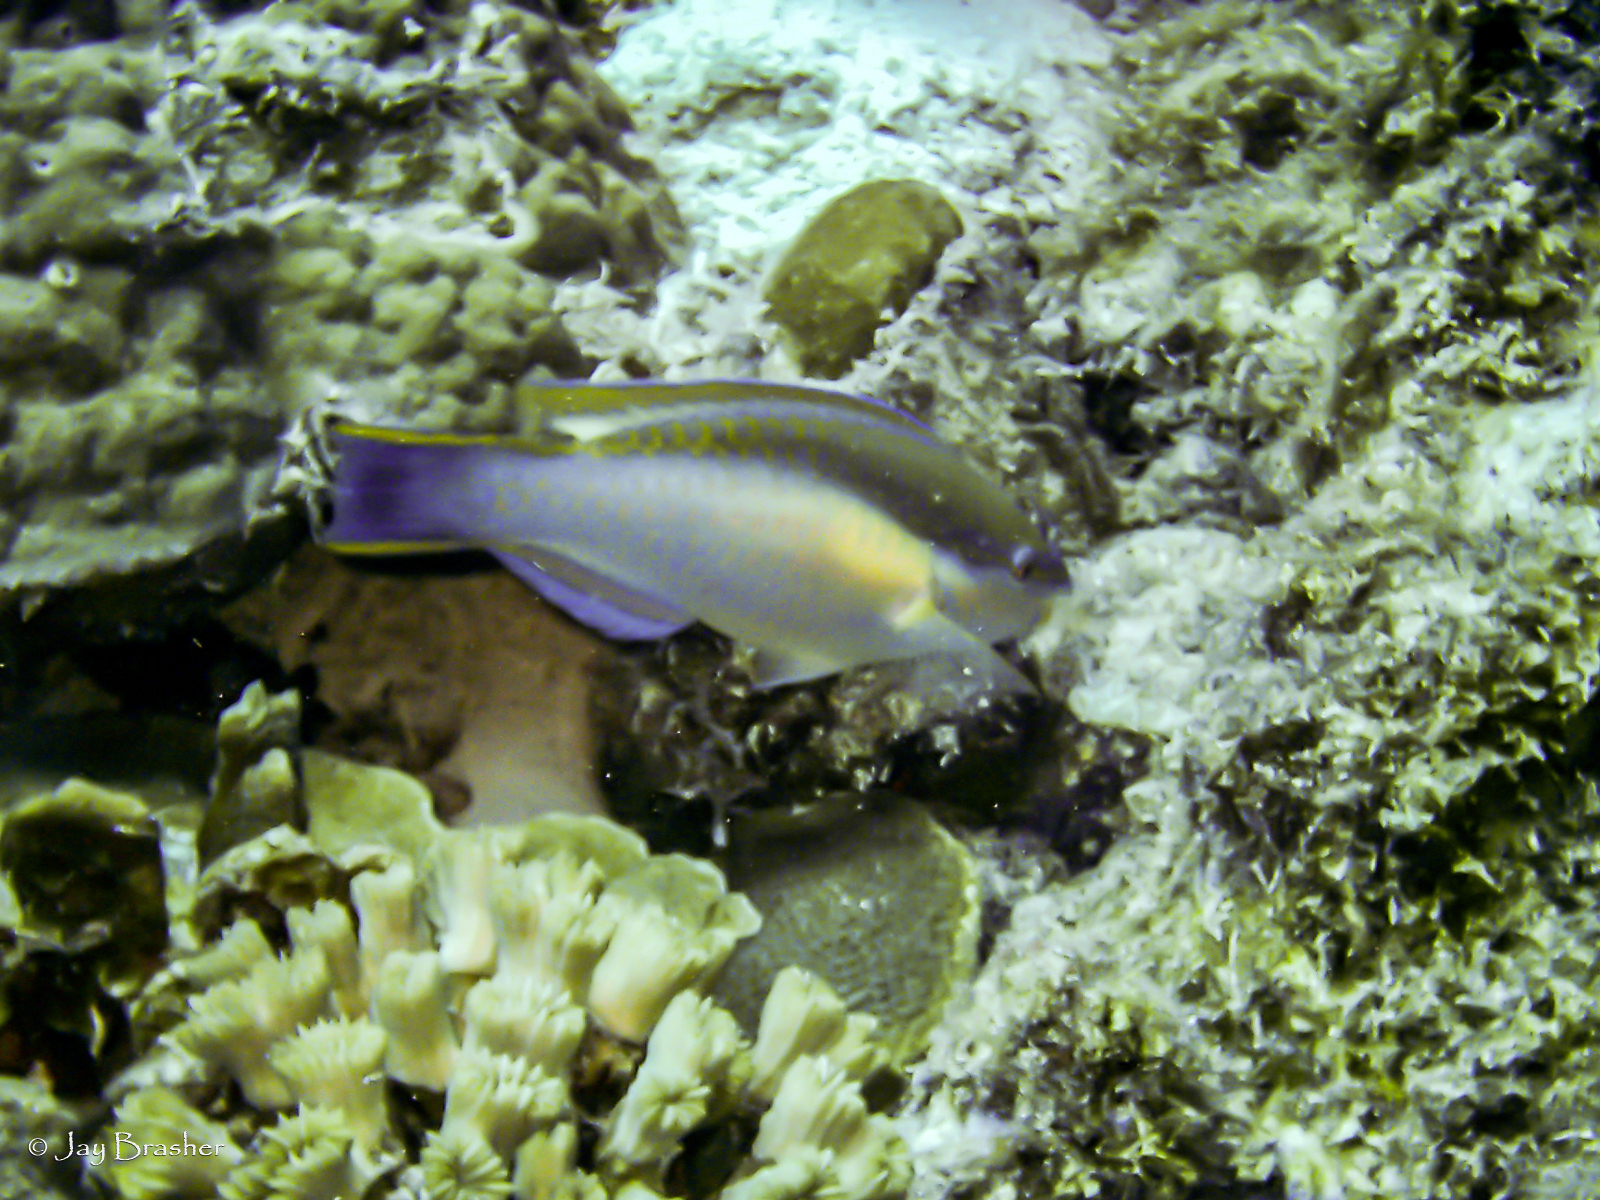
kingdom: Animalia
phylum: Chordata
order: Perciformes
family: Scaridae
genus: Scarus
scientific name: Scarus taeniopterus
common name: Princess parrotfish
